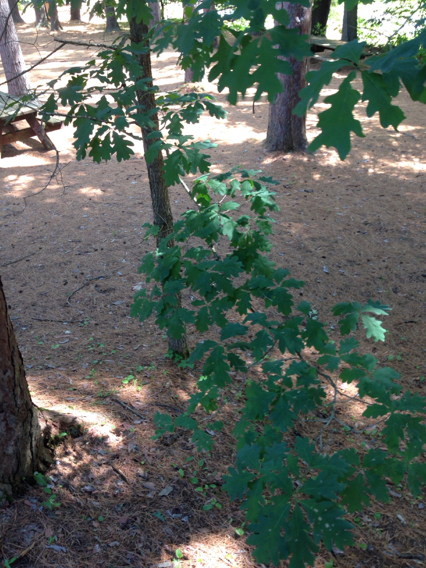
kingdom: Plantae
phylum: Tracheophyta
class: Magnoliopsida
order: Fagales
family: Fagaceae
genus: Quercus
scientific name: Quercus alba
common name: White oak
